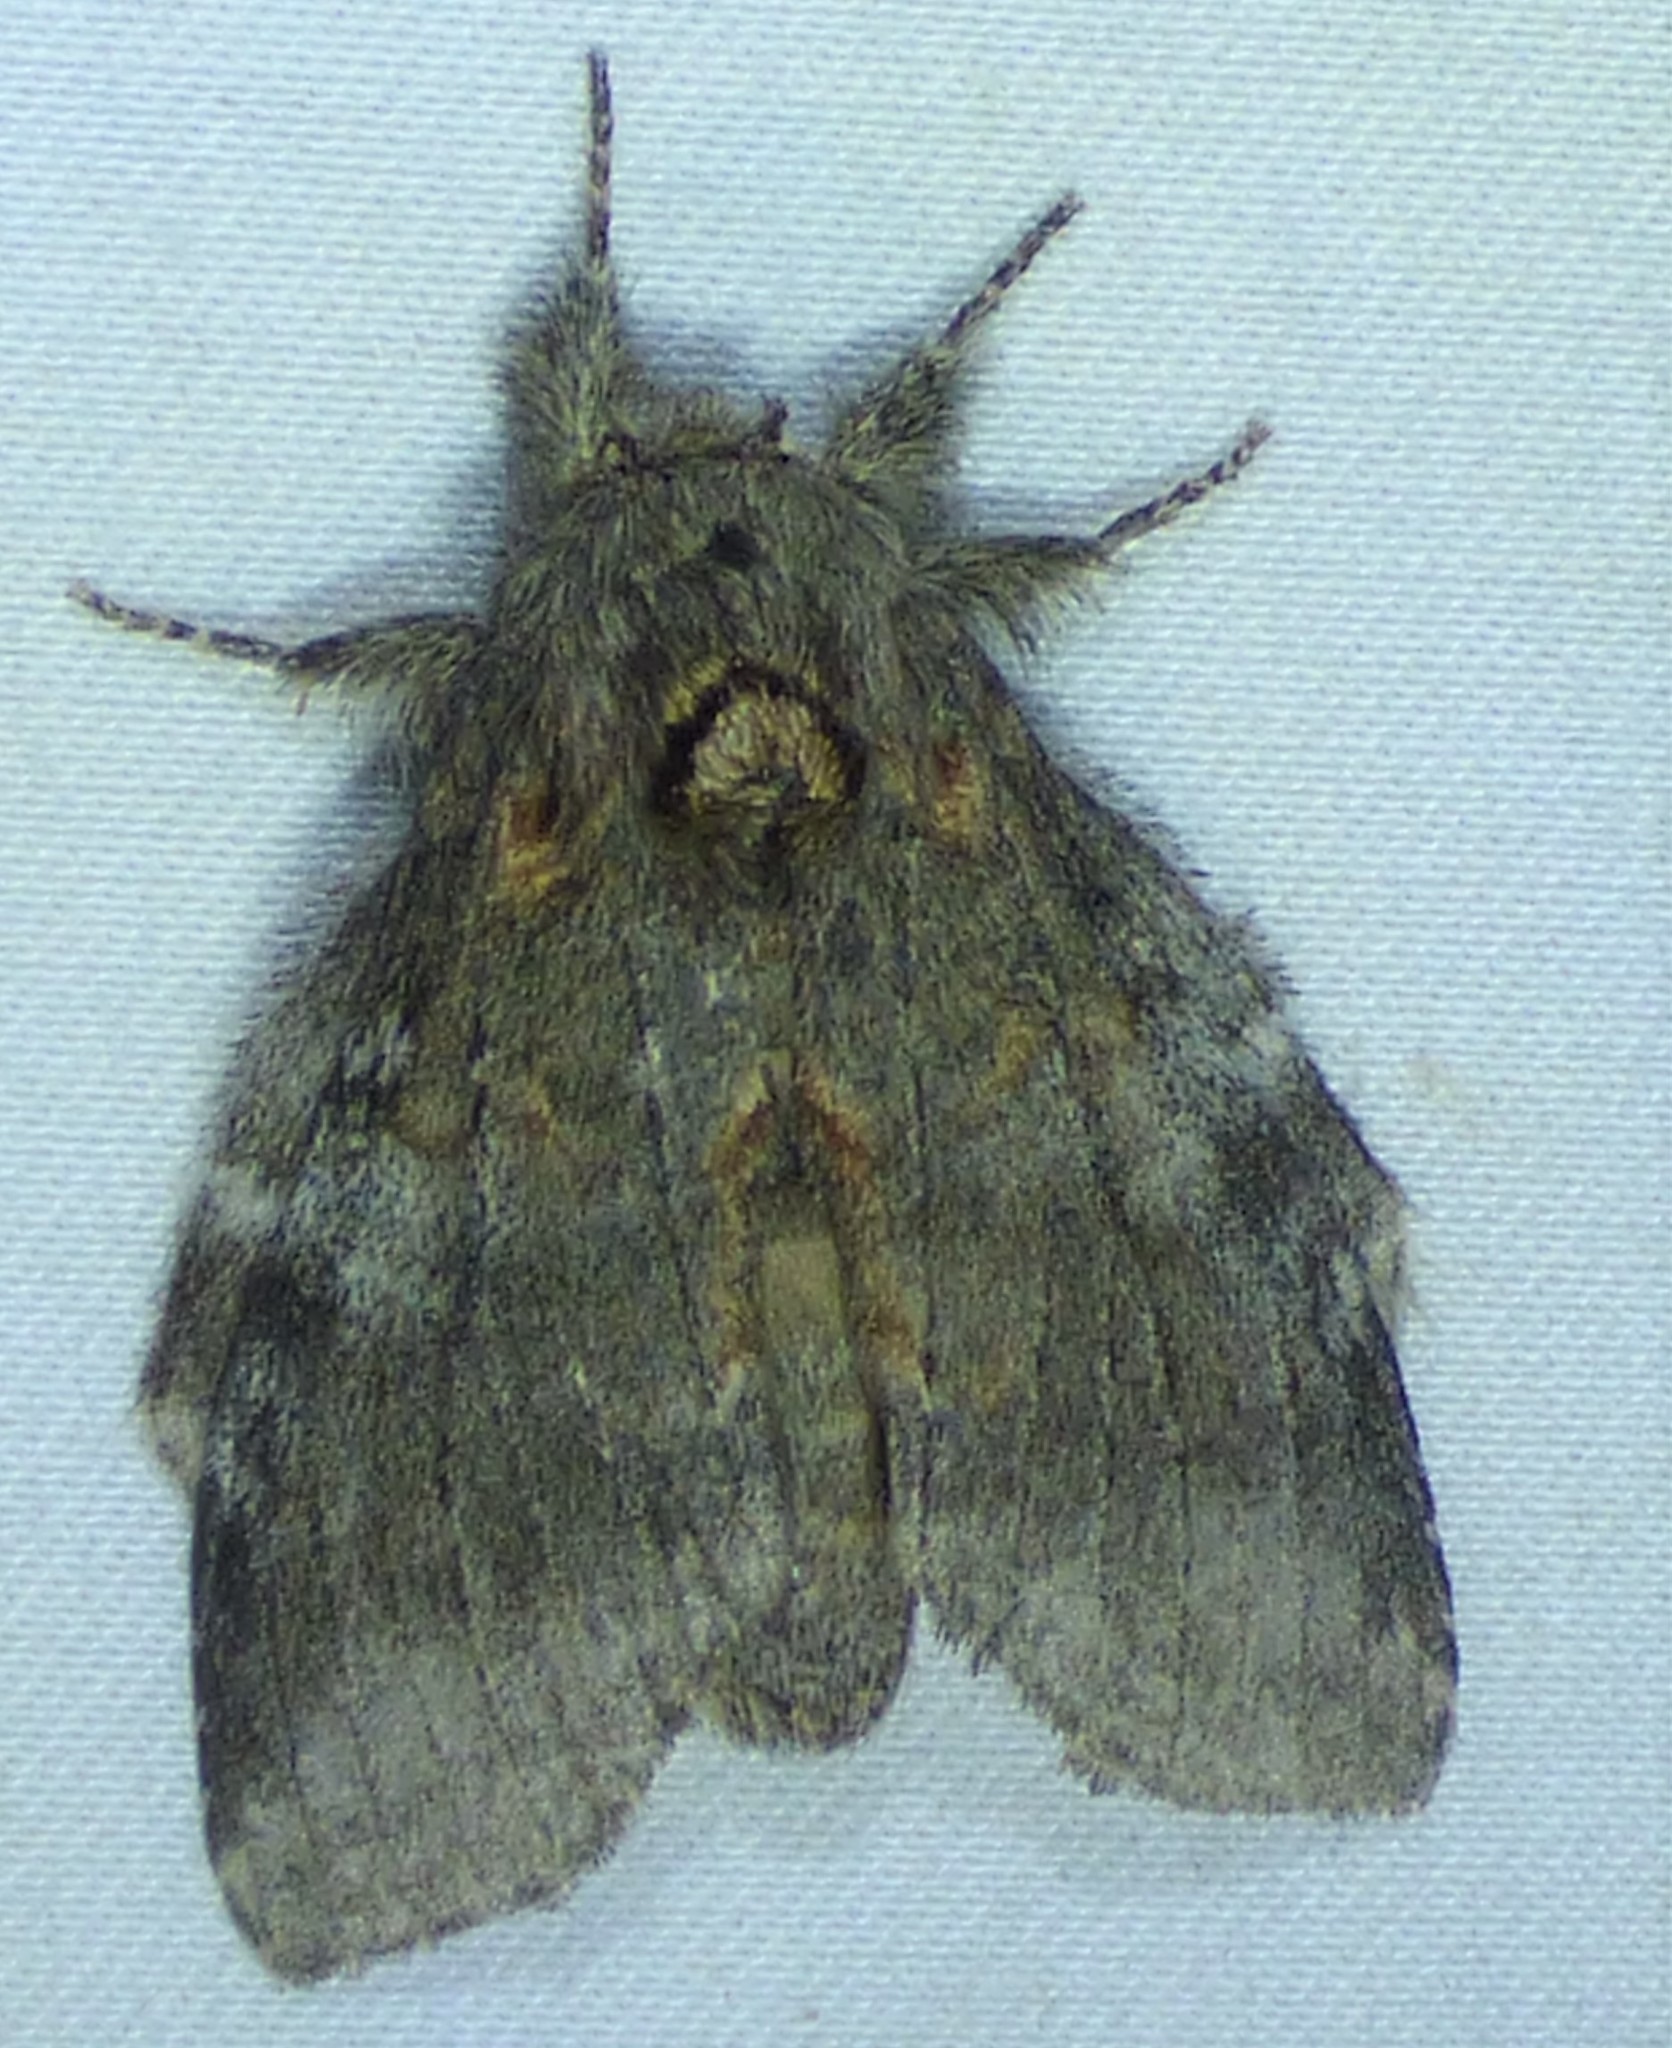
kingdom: Animalia
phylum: Arthropoda
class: Insecta
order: Lepidoptera
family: Notodontidae
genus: Peridea
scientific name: Peridea angulosa
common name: Angulose prominent
